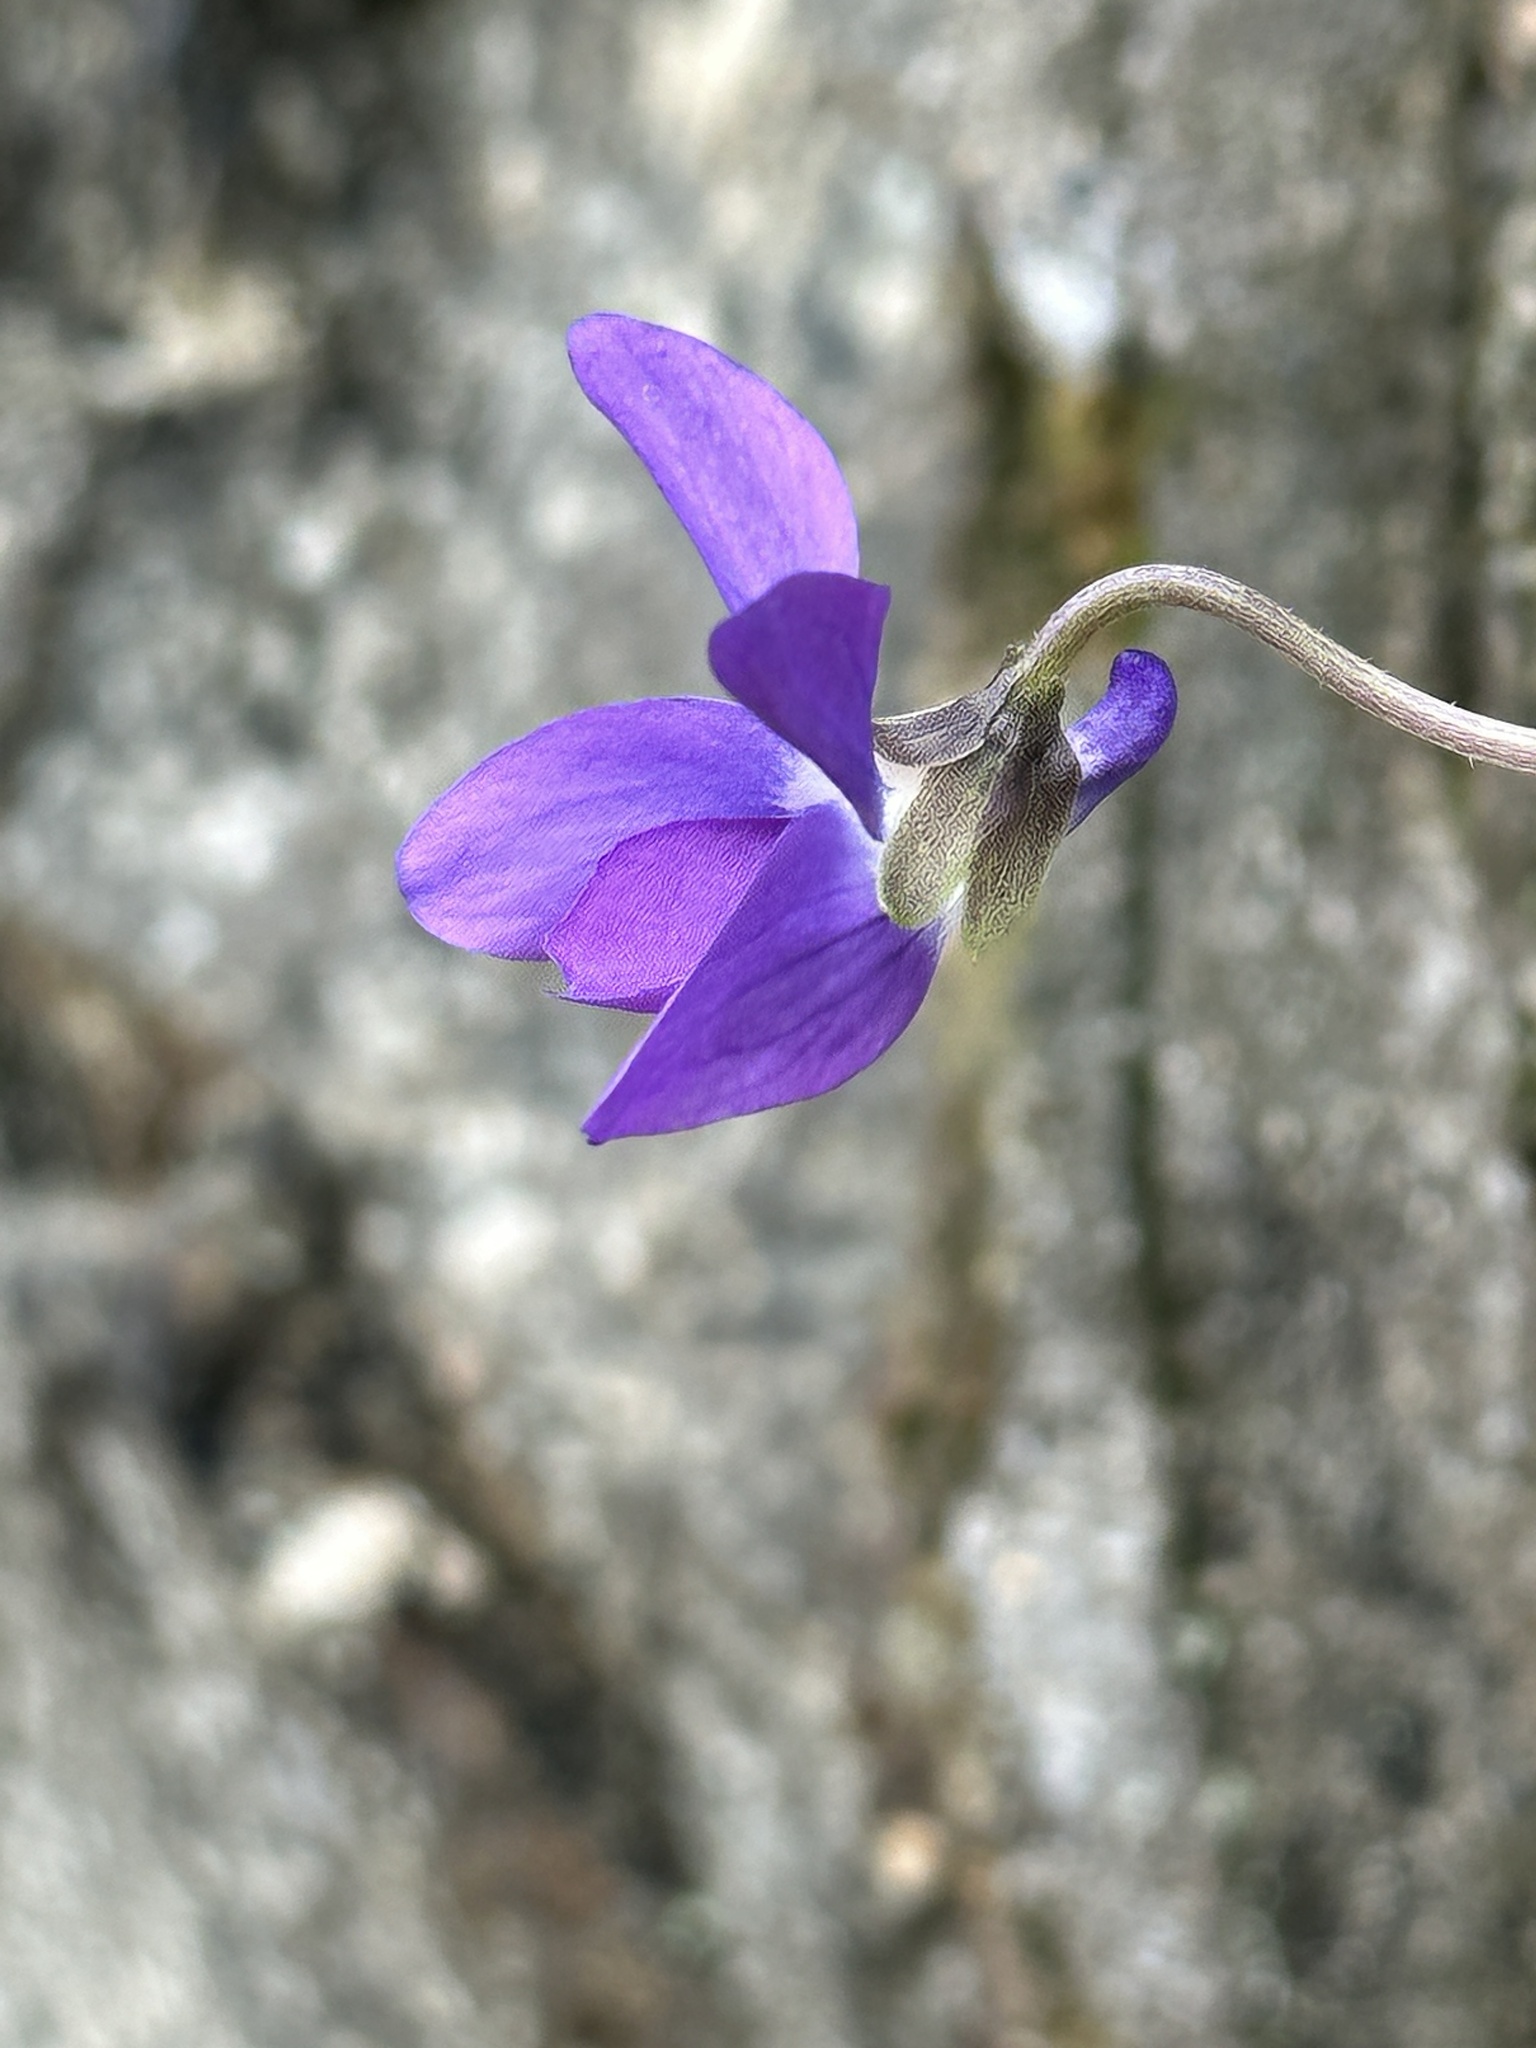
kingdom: Plantae
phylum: Tracheophyta
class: Magnoliopsida
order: Malpighiales
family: Violaceae
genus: Viola
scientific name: Viola sororia
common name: Dooryard violet
